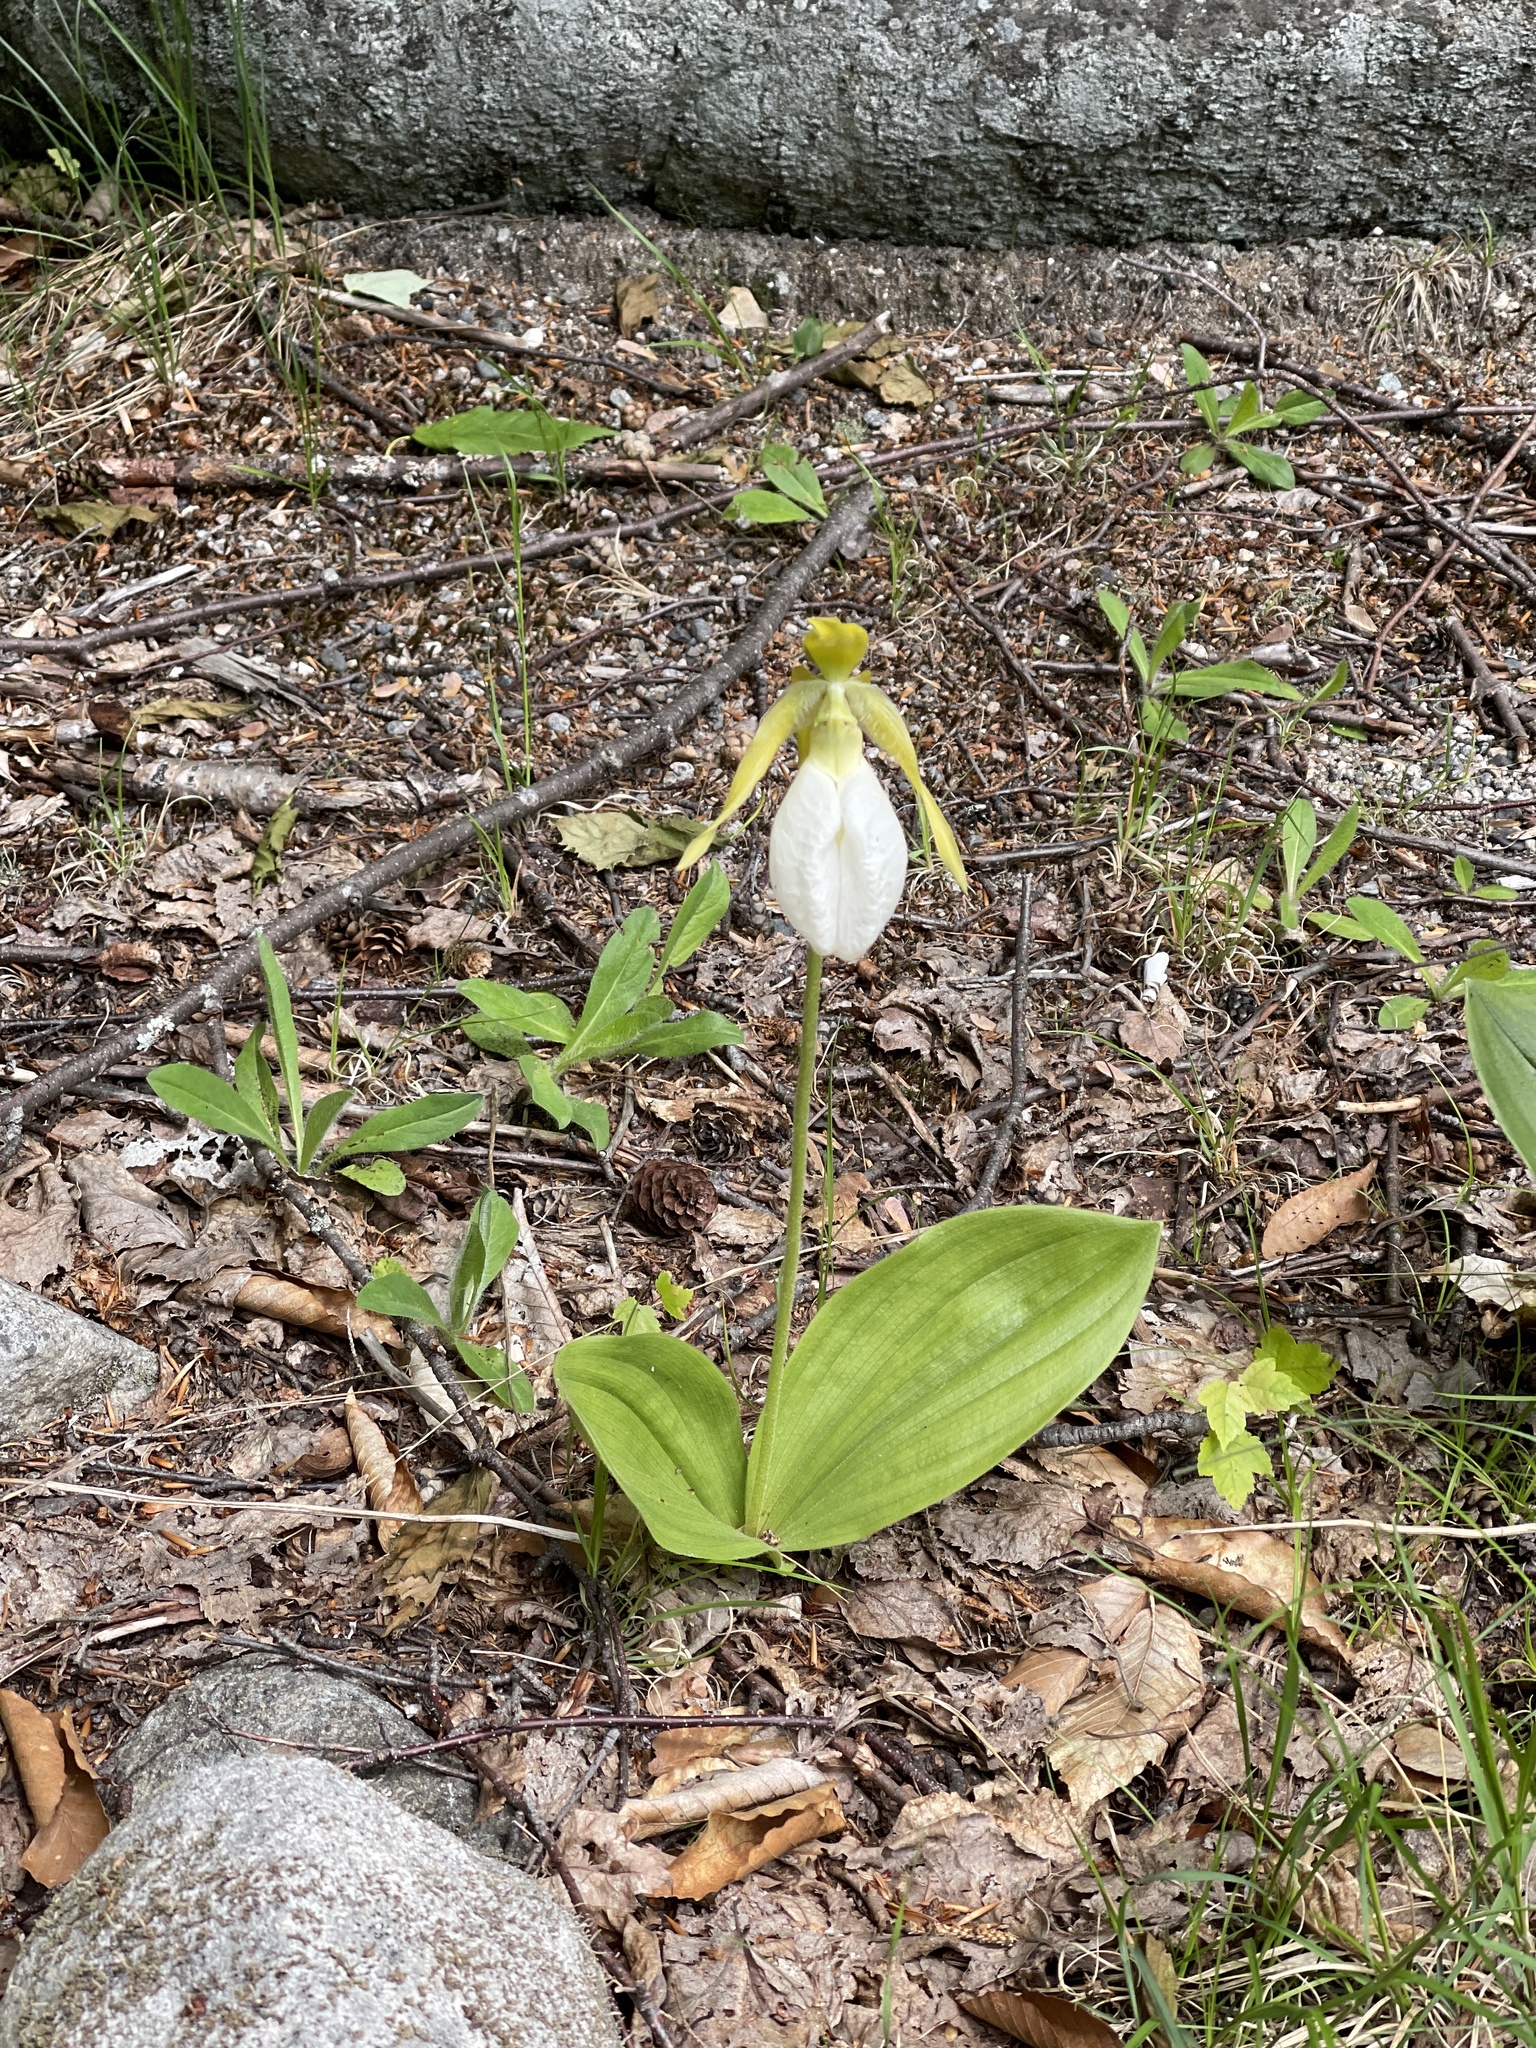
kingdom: Plantae
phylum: Tracheophyta
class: Liliopsida
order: Asparagales
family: Orchidaceae
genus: Cypripedium
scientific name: Cypripedium acaule
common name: Pink lady's-slipper
